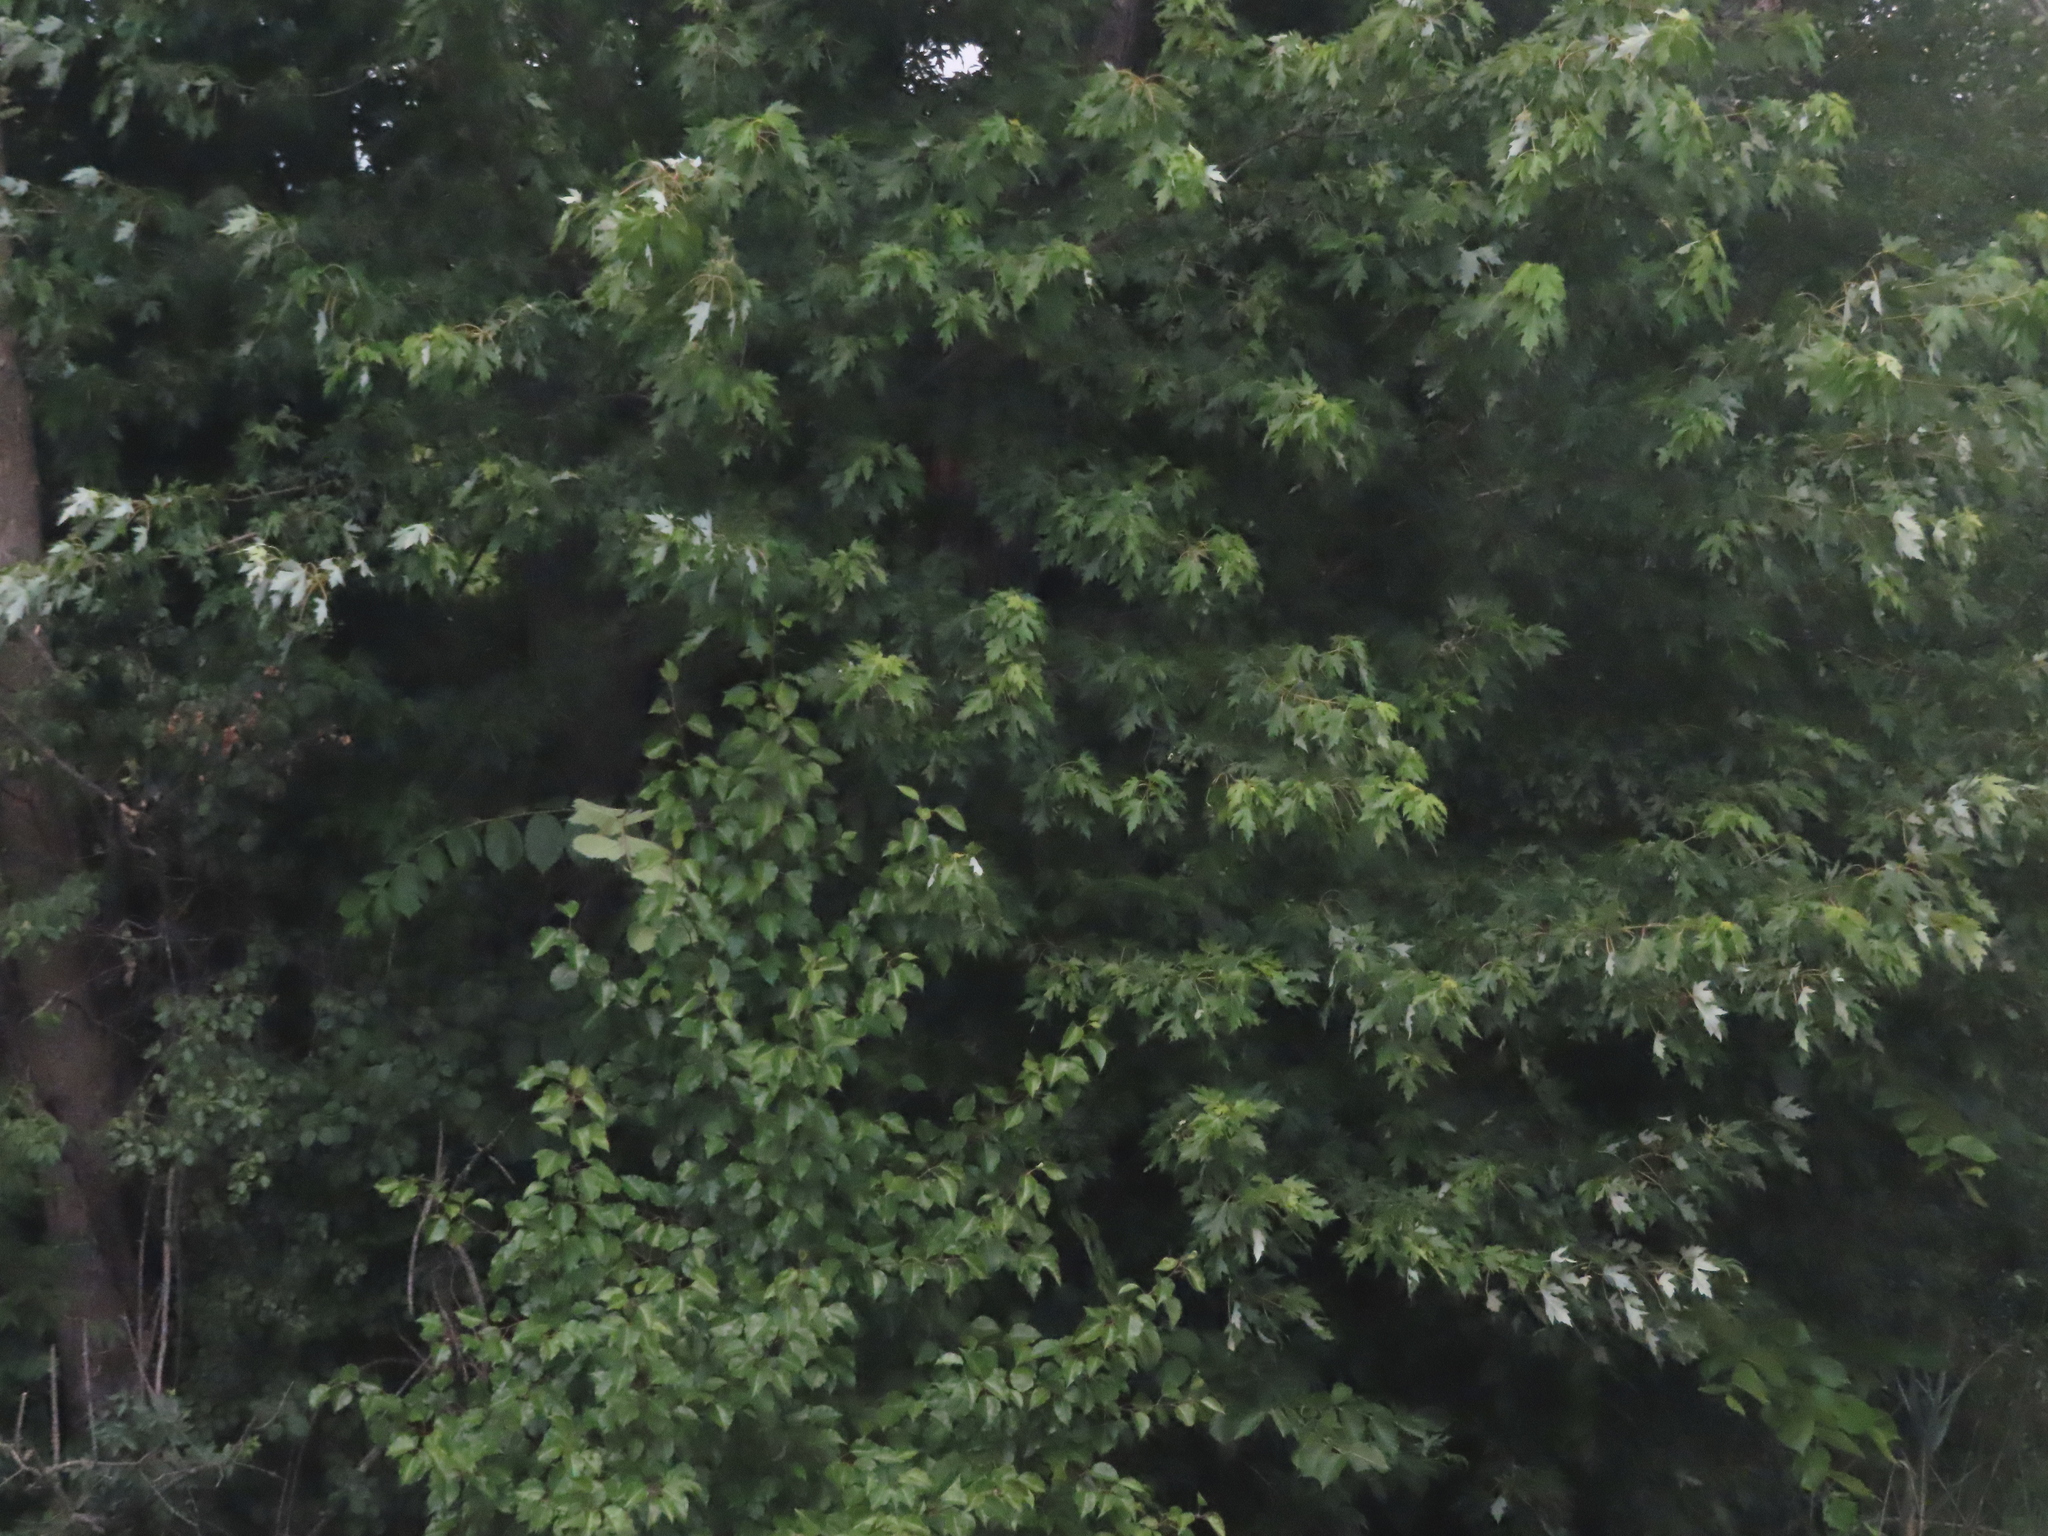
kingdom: Plantae
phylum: Tracheophyta
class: Magnoliopsida
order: Sapindales
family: Sapindaceae
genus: Acer
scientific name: Acer saccharinum
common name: Silver maple
